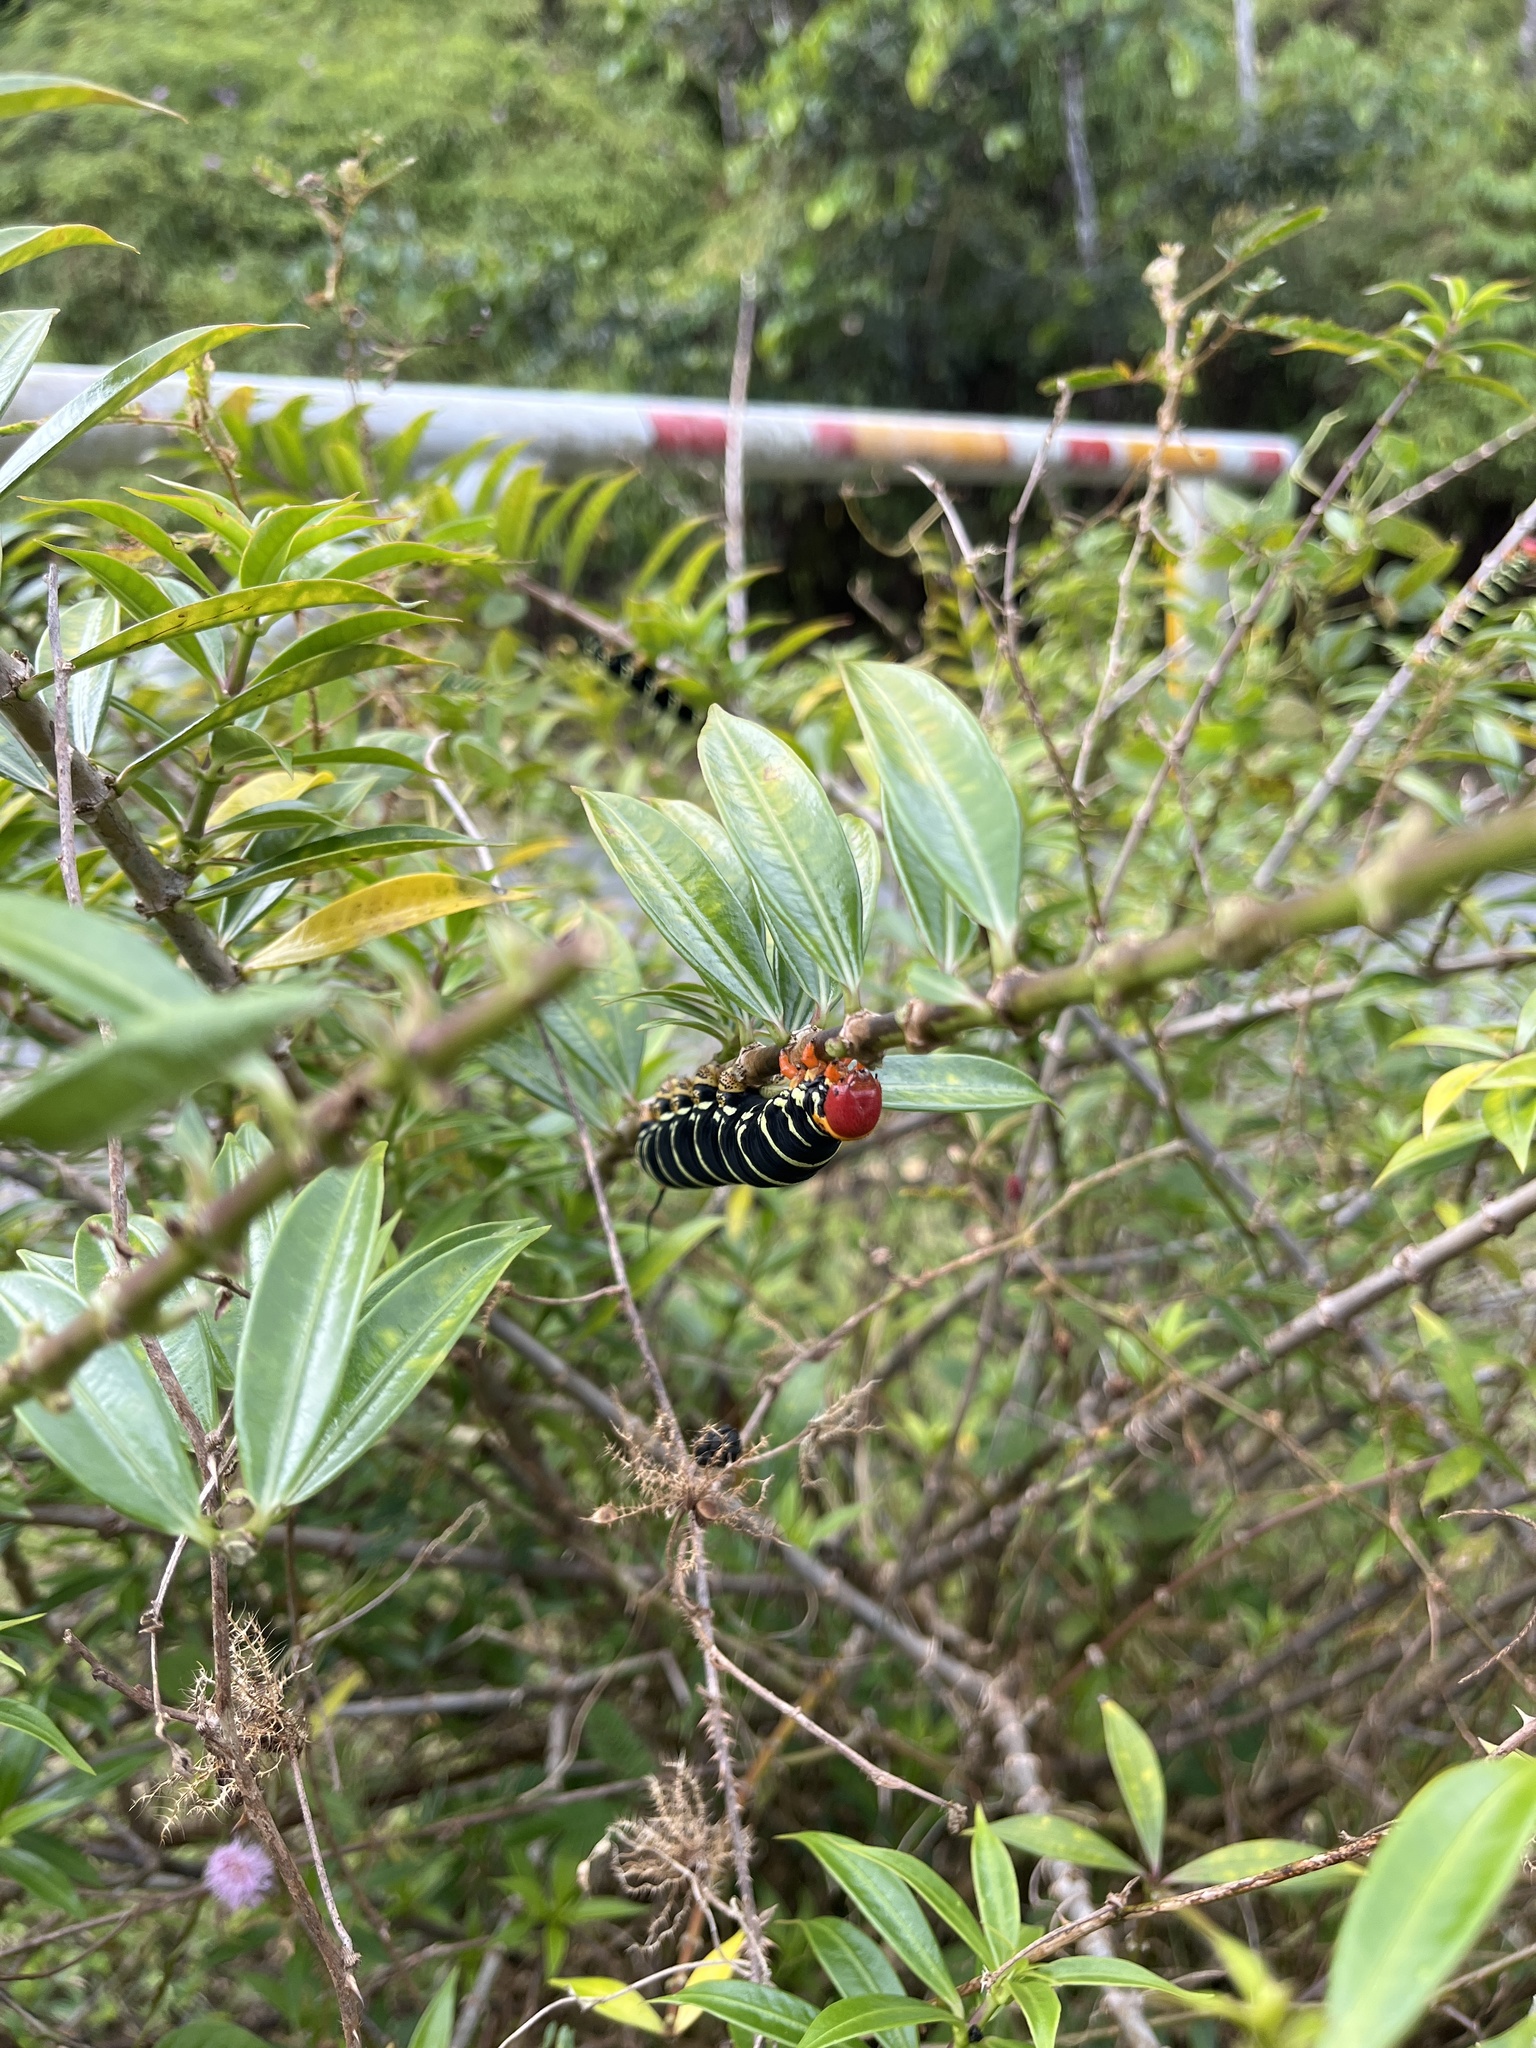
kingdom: Animalia
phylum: Arthropoda
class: Insecta
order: Lepidoptera
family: Sphingidae
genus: Pseudosphinx
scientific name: Pseudosphinx tetrio
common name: Tetrio sphinx
